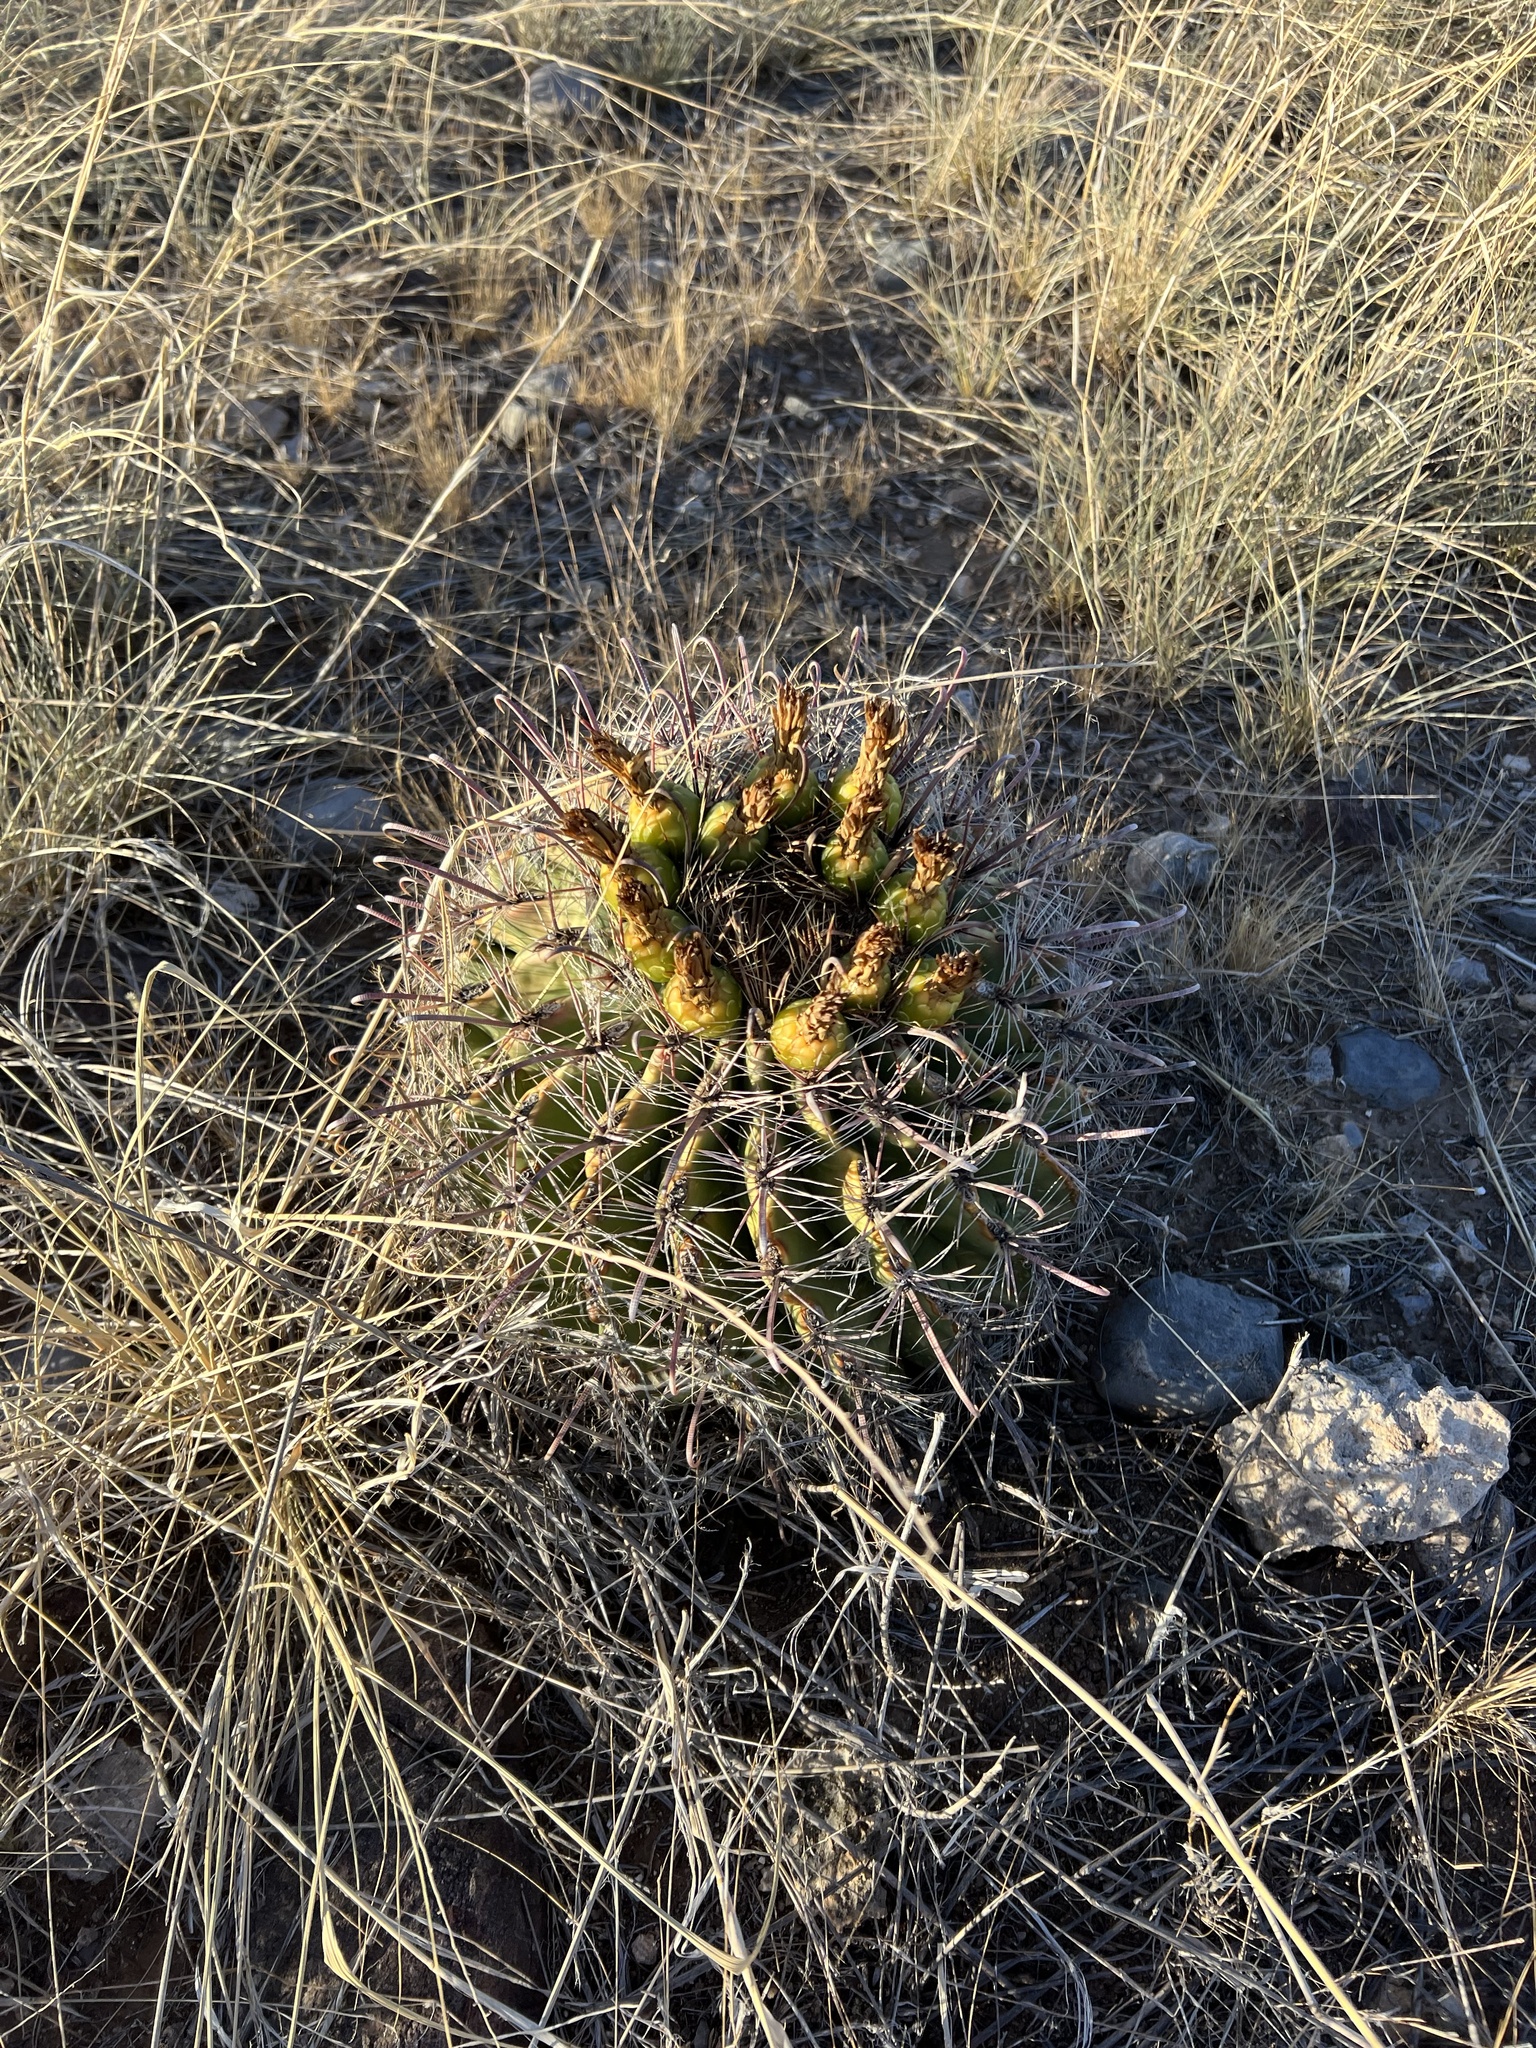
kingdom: Plantae
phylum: Tracheophyta
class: Magnoliopsida
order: Caryophyllales
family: Cactaceae
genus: Ferocactus
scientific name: Ferocactus wislizeni
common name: Candy barrel cactus
